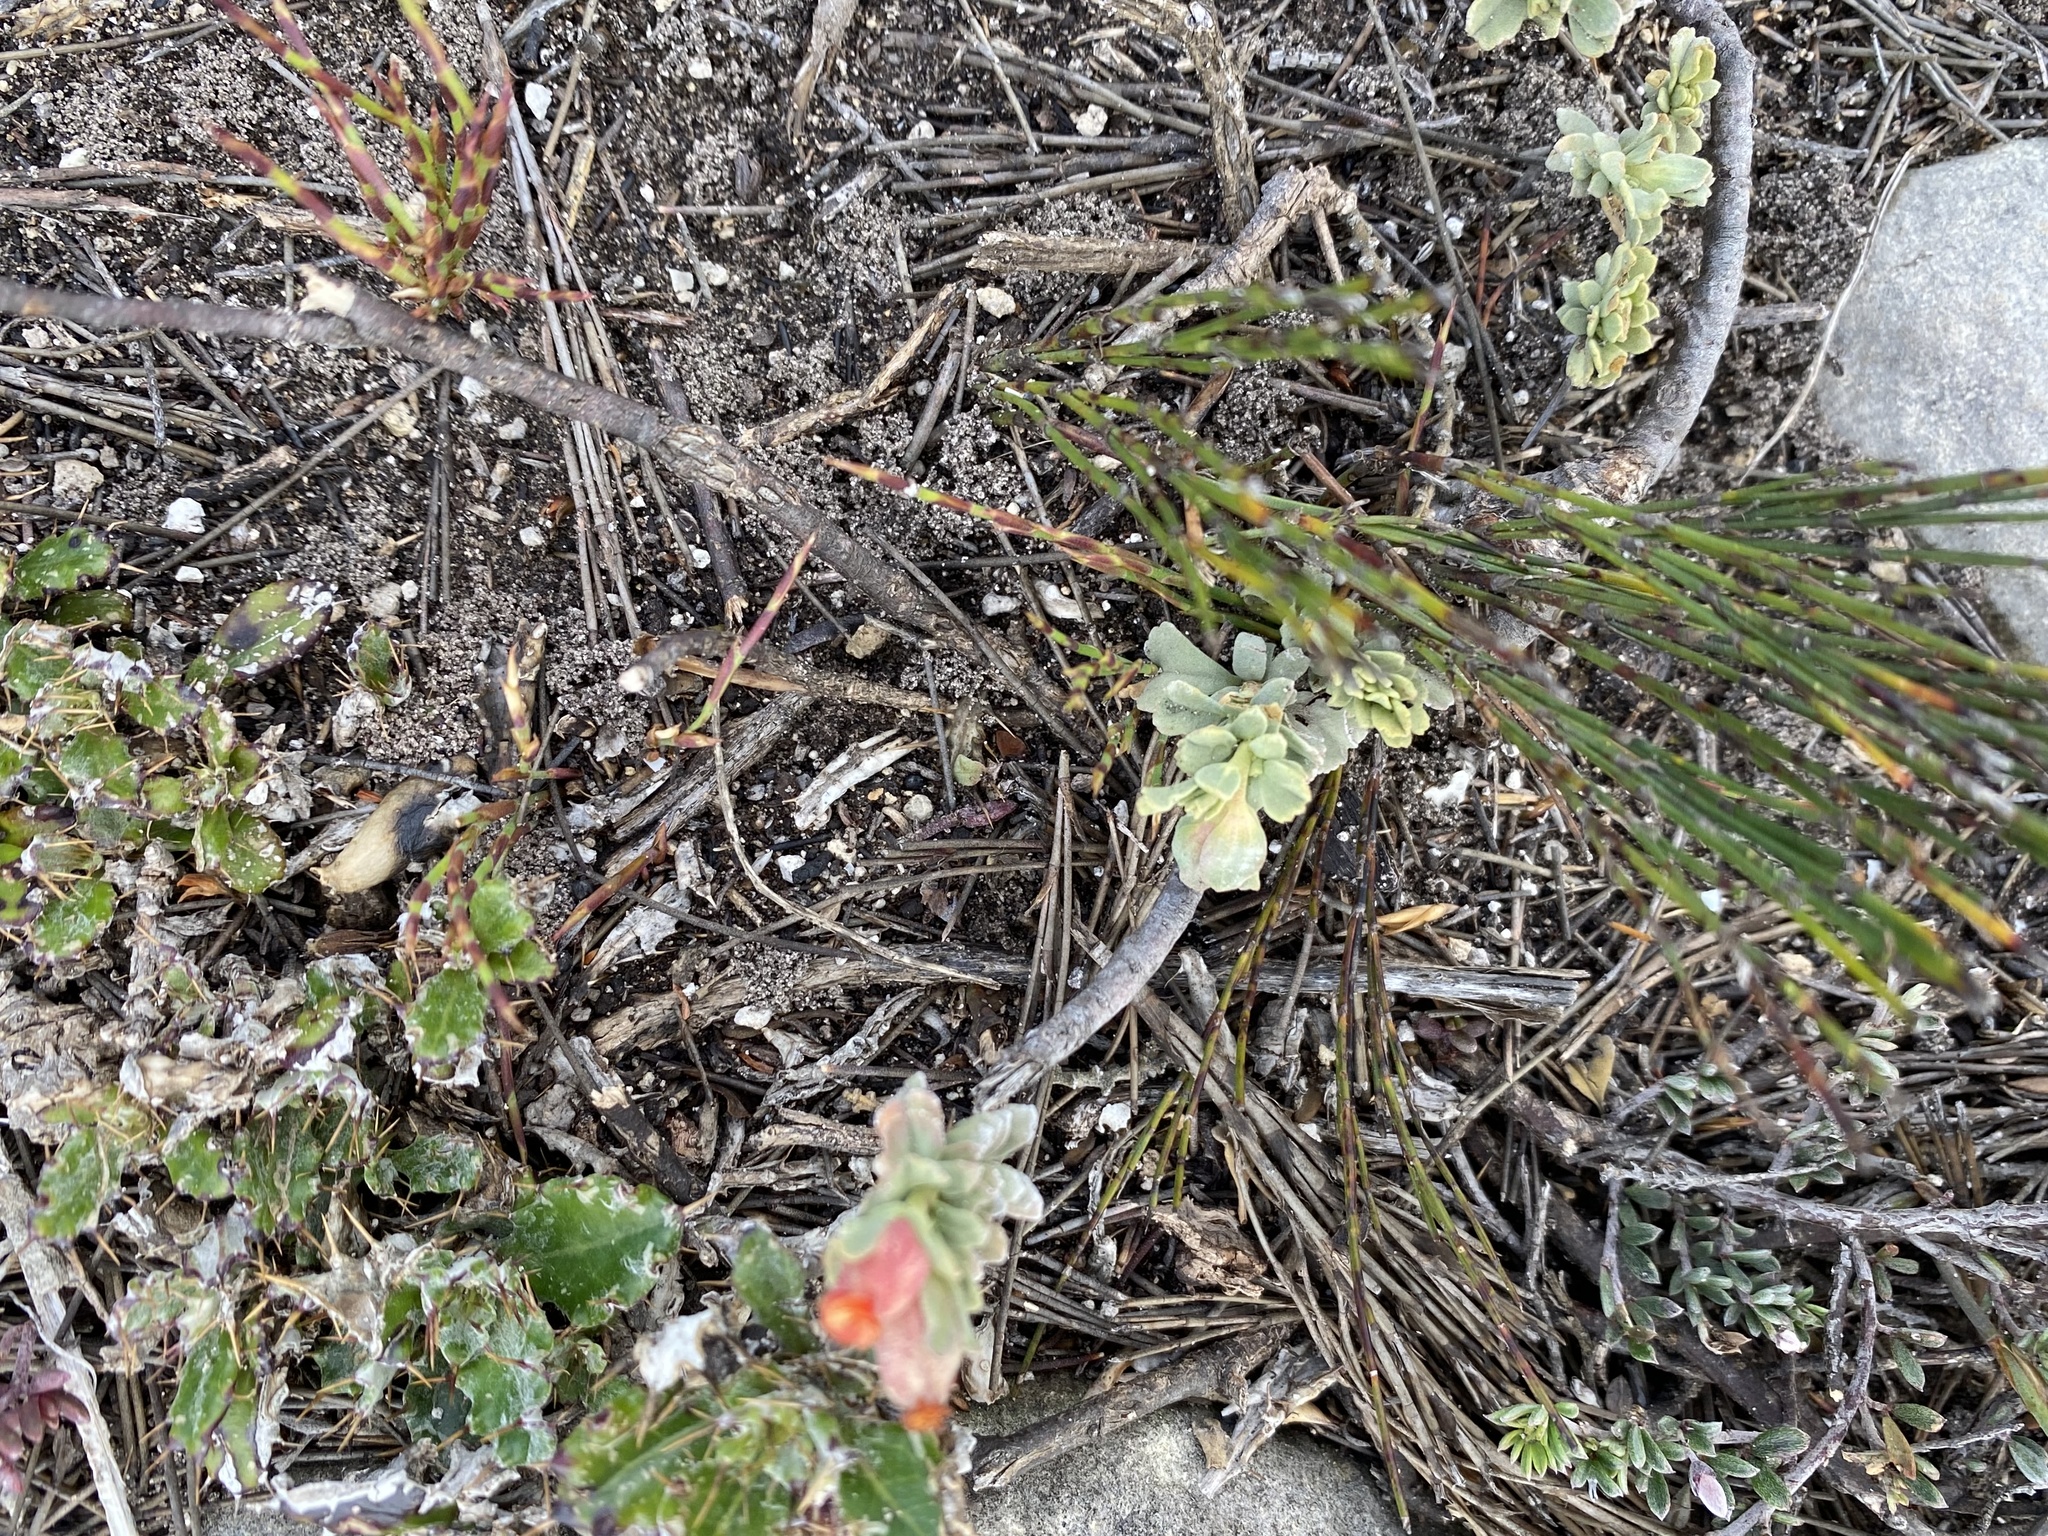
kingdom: Plantae
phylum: Tracheophyta
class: Magnoliopsida
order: Malvales
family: Malvaceae
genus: Hermannia
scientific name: Hermannia trifoliata
